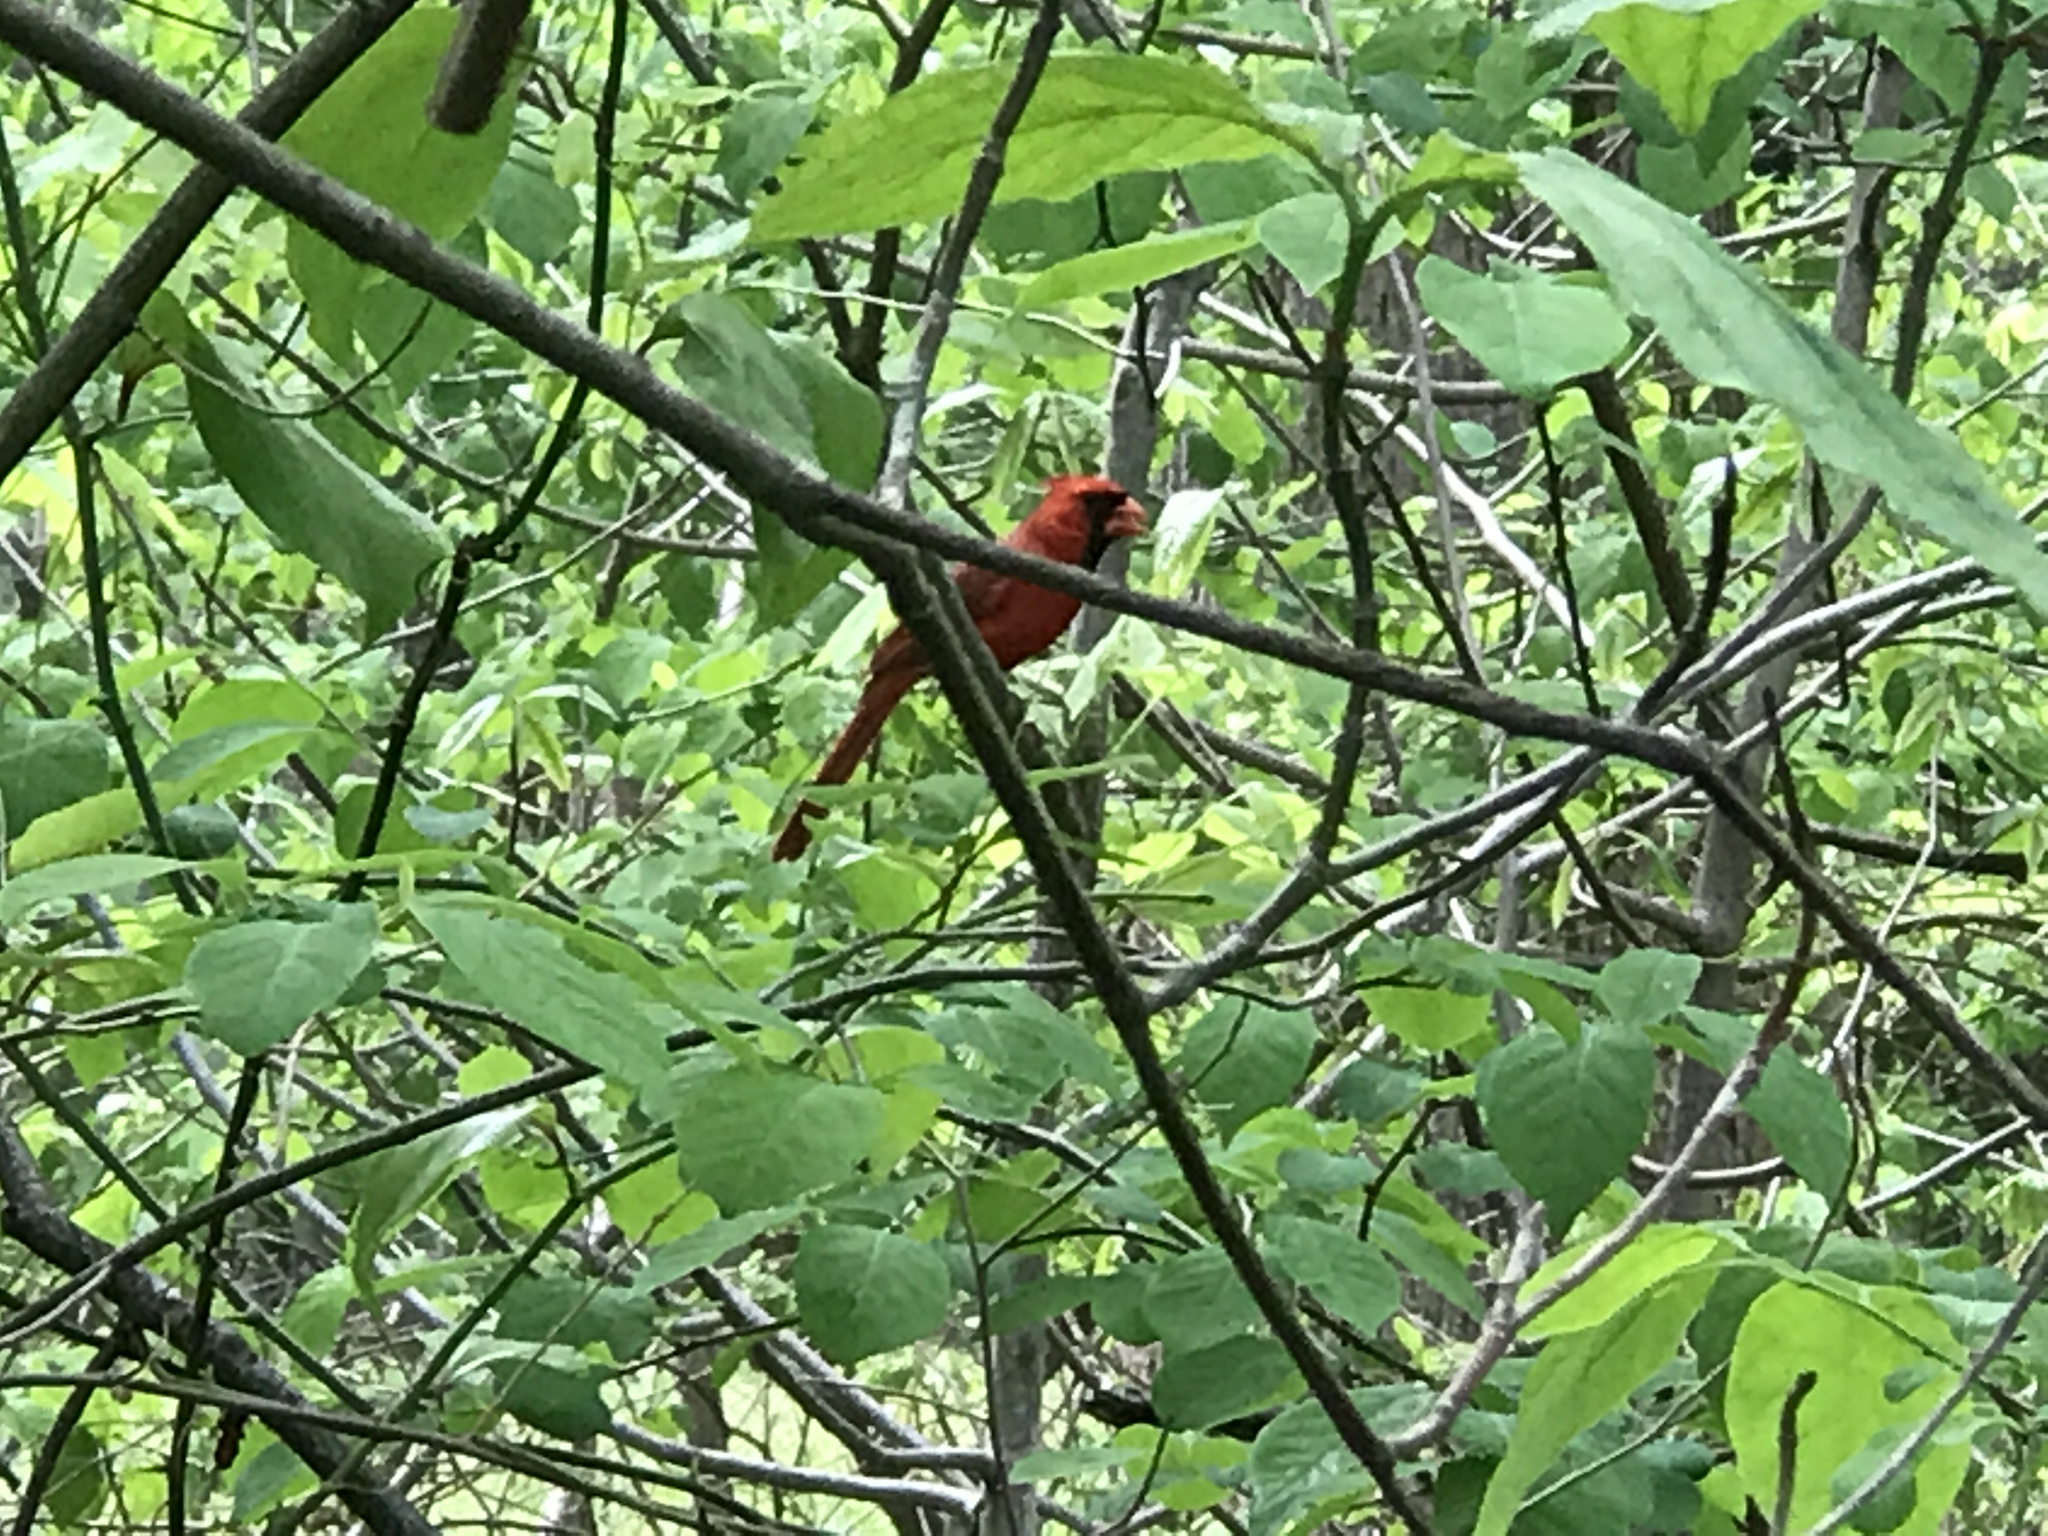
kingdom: Animalia
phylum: Chordata
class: Aves
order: Passeriformes
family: Cardinalidae
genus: Cardinalis
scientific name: Cardinalis cardinalis
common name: Northern cardinal
